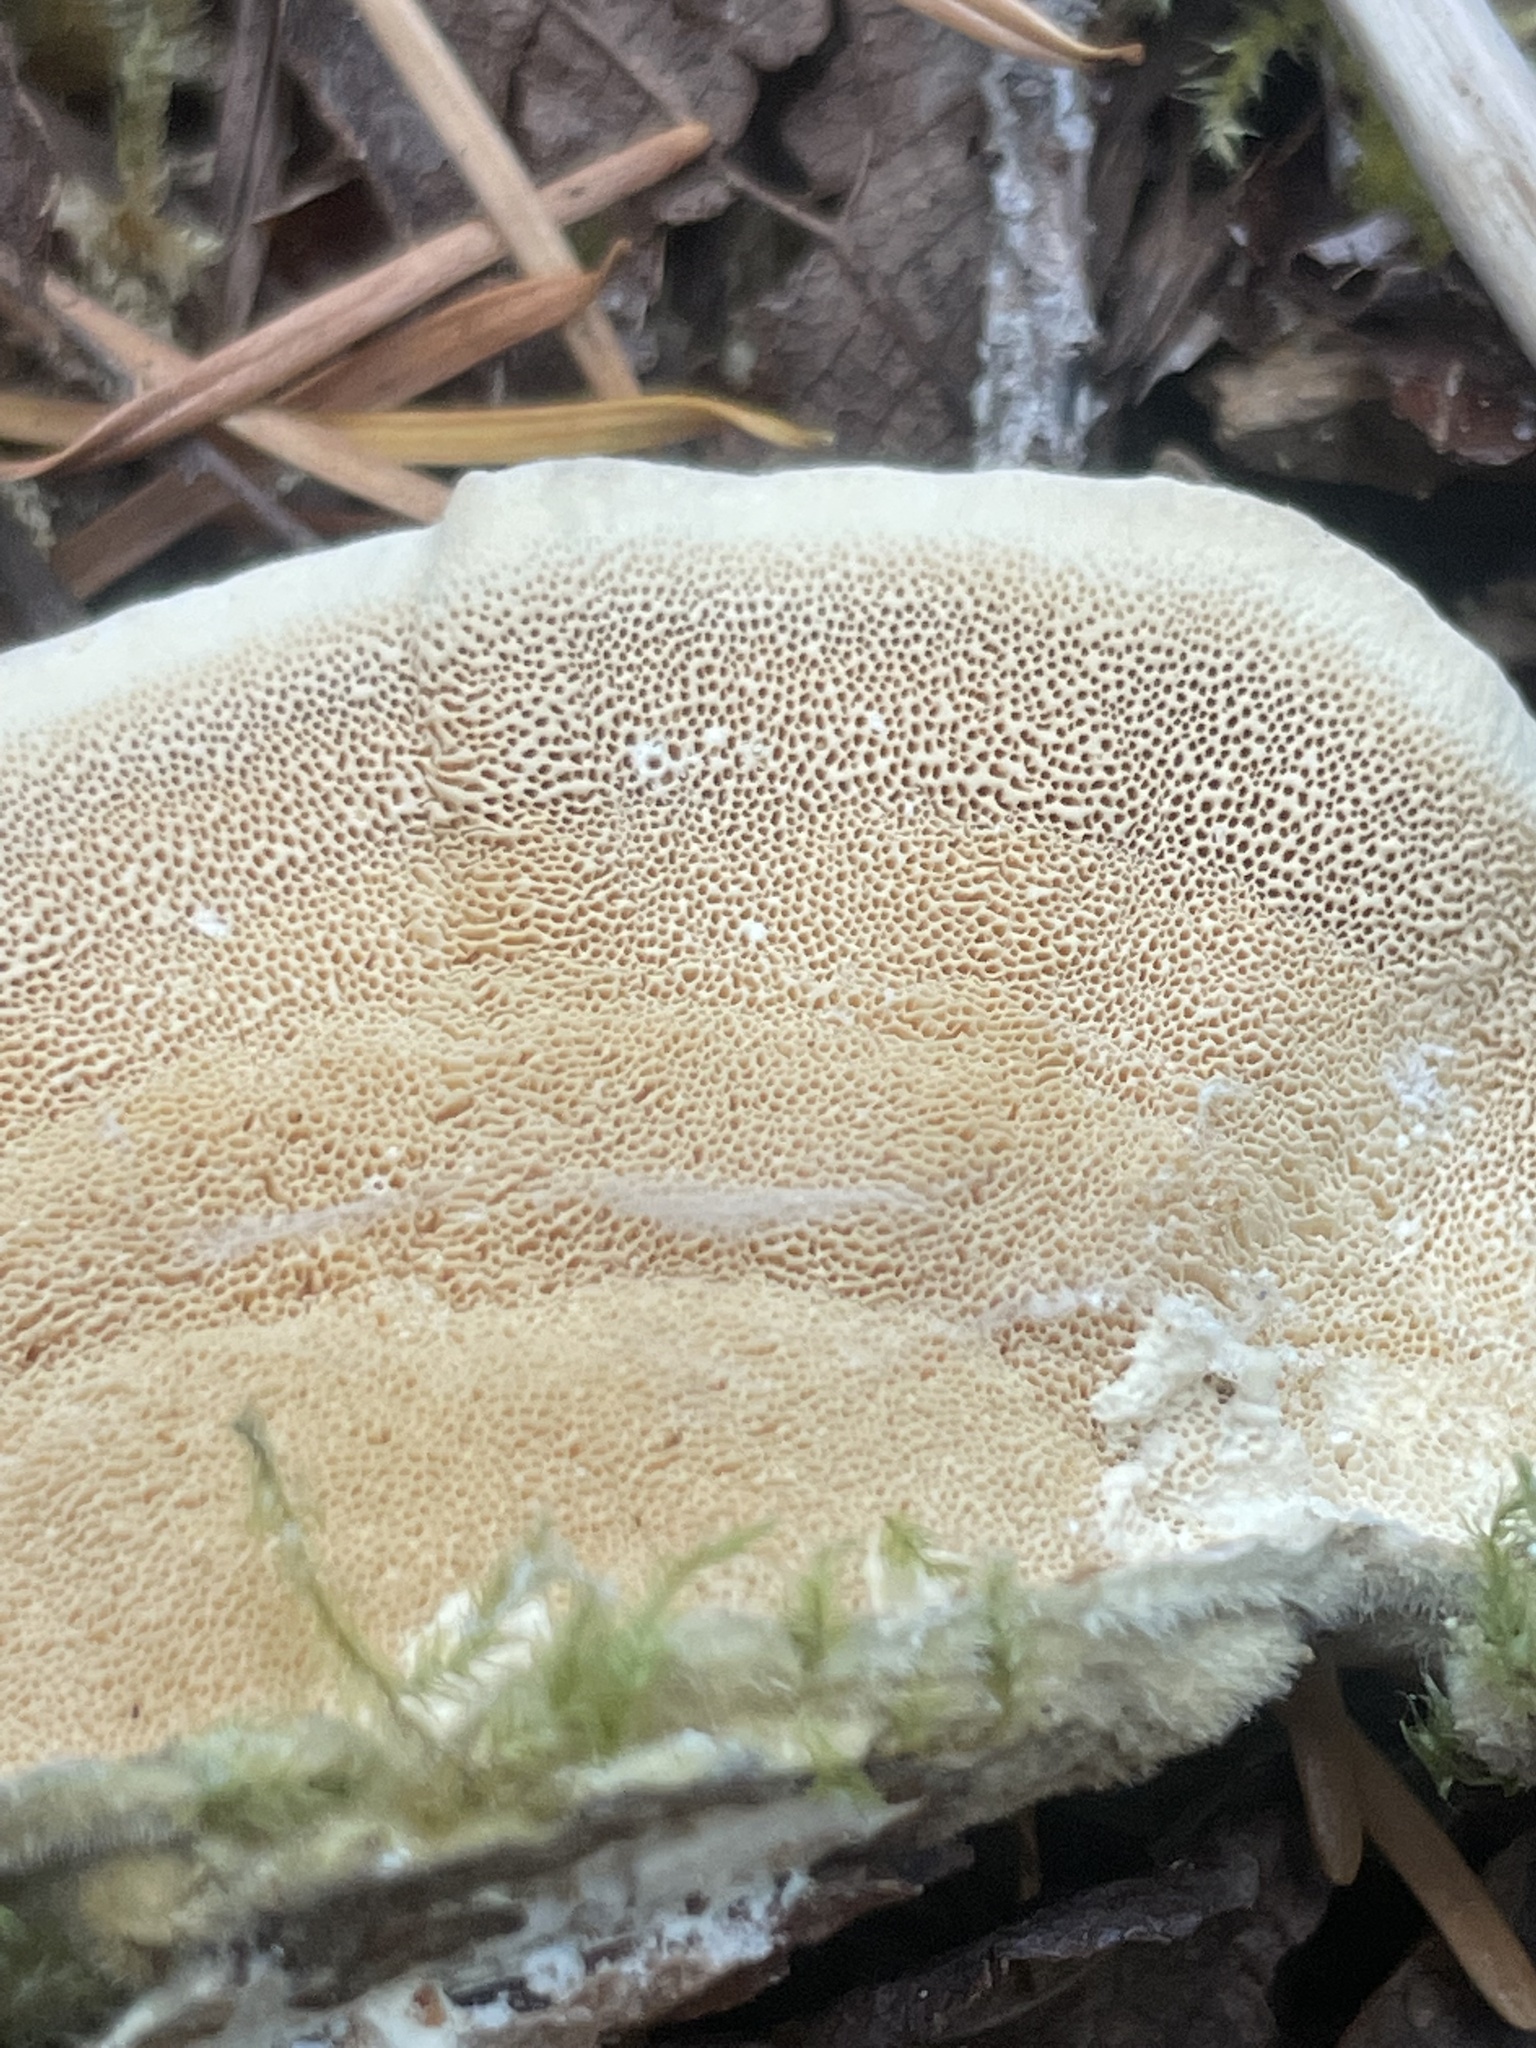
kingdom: Fungi
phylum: Basidiomycota
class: Agaricomycetes
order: Polyporales
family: Polyporaceae
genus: Trametes
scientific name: Trametes versicolor
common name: Turkeytail
